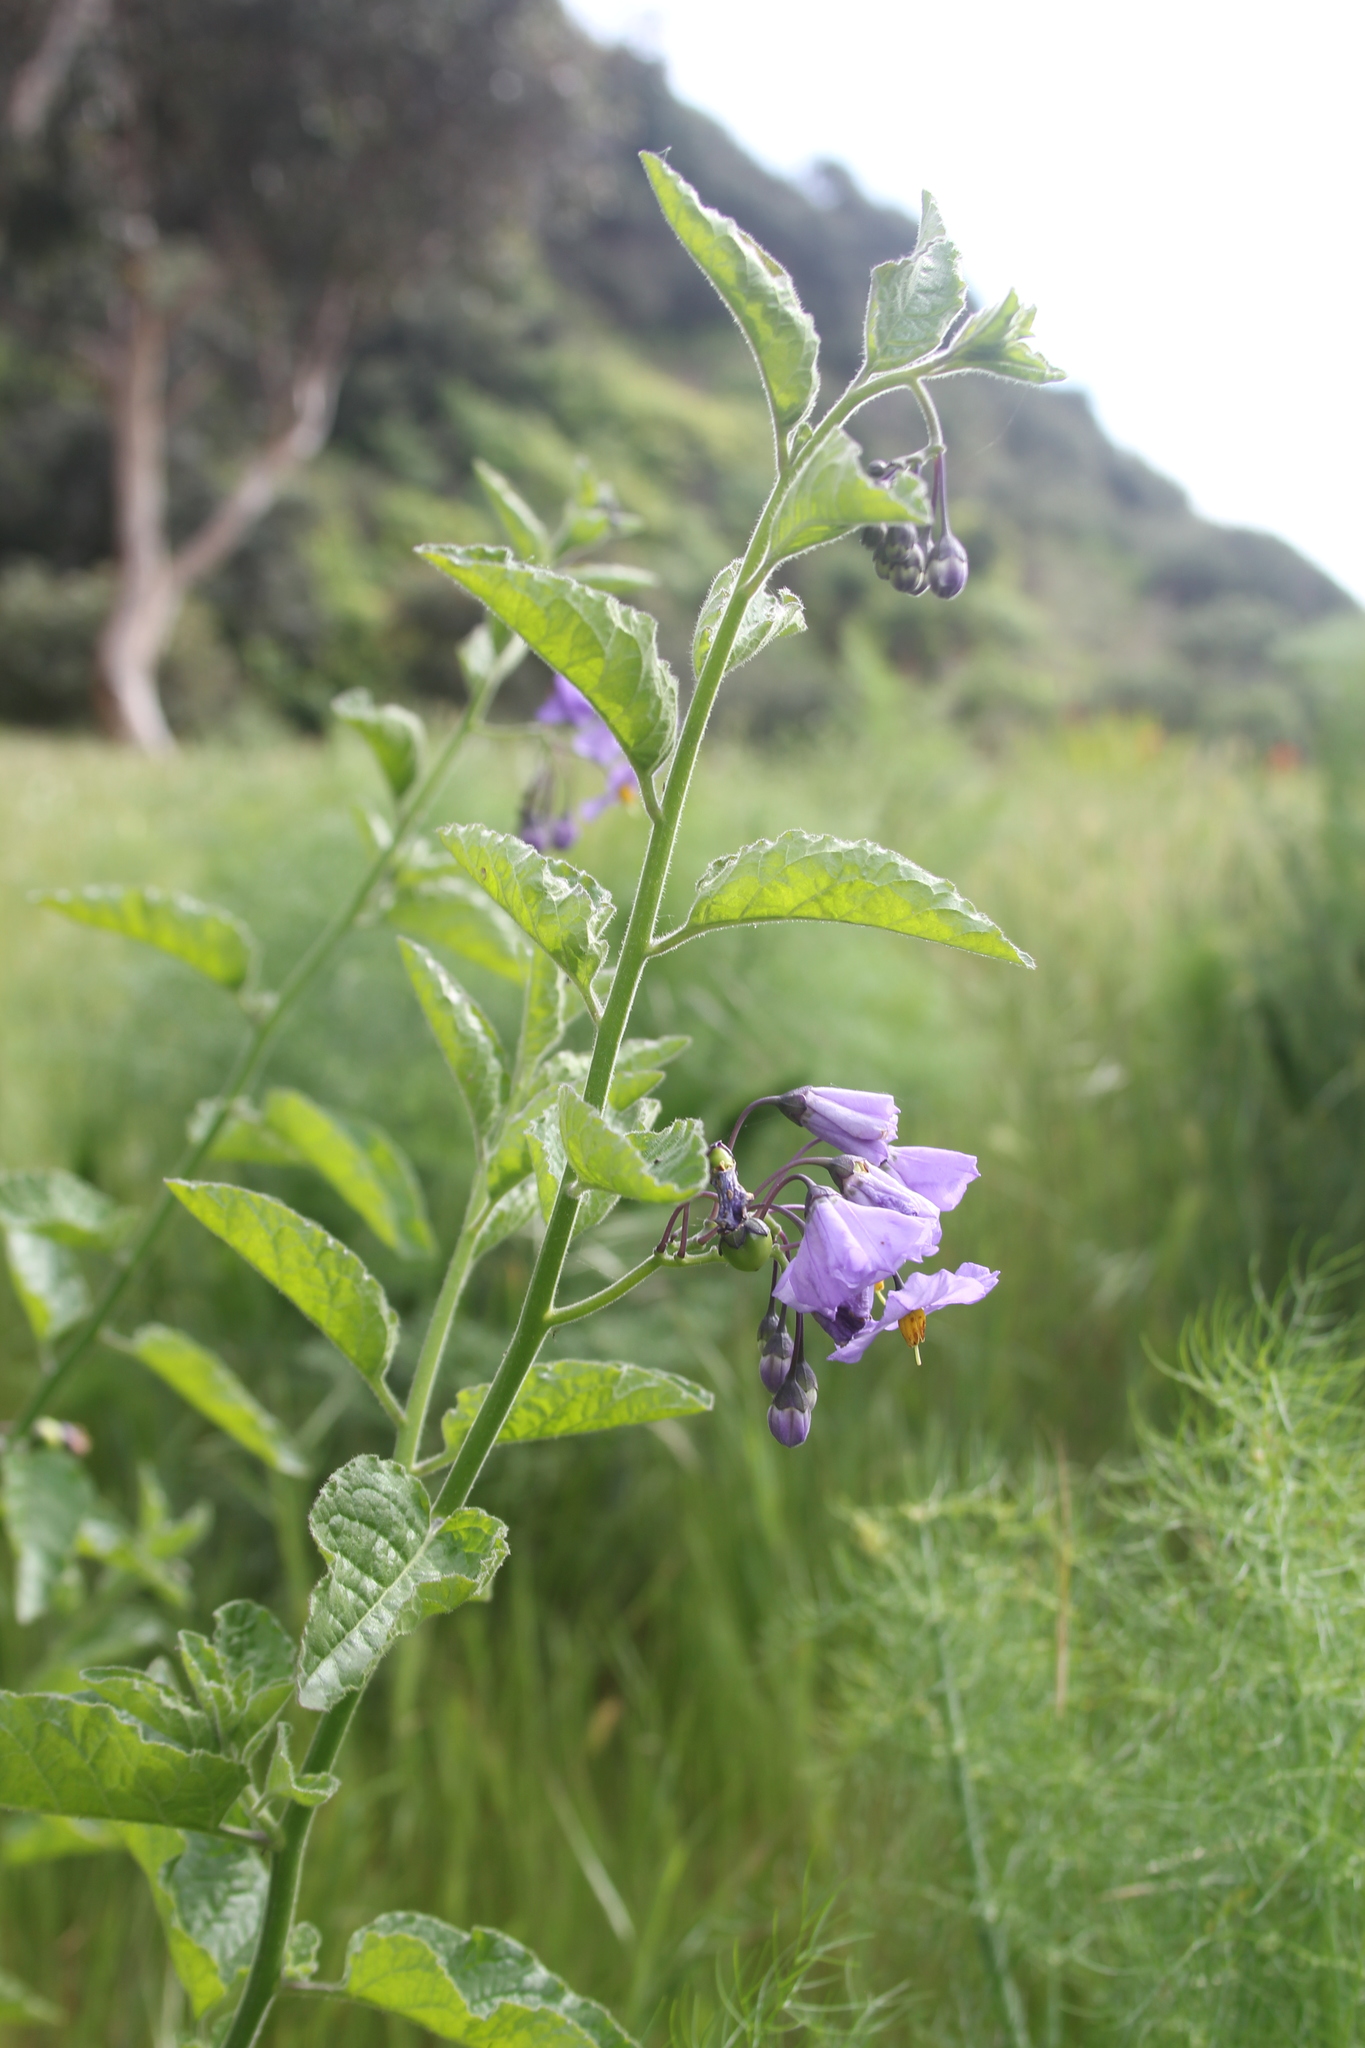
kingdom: Plantae
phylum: Tracheophyta
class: Magnoliopsida
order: Solanales
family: Solanaceae
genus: Solanum
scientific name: Solanum umbelliferum
